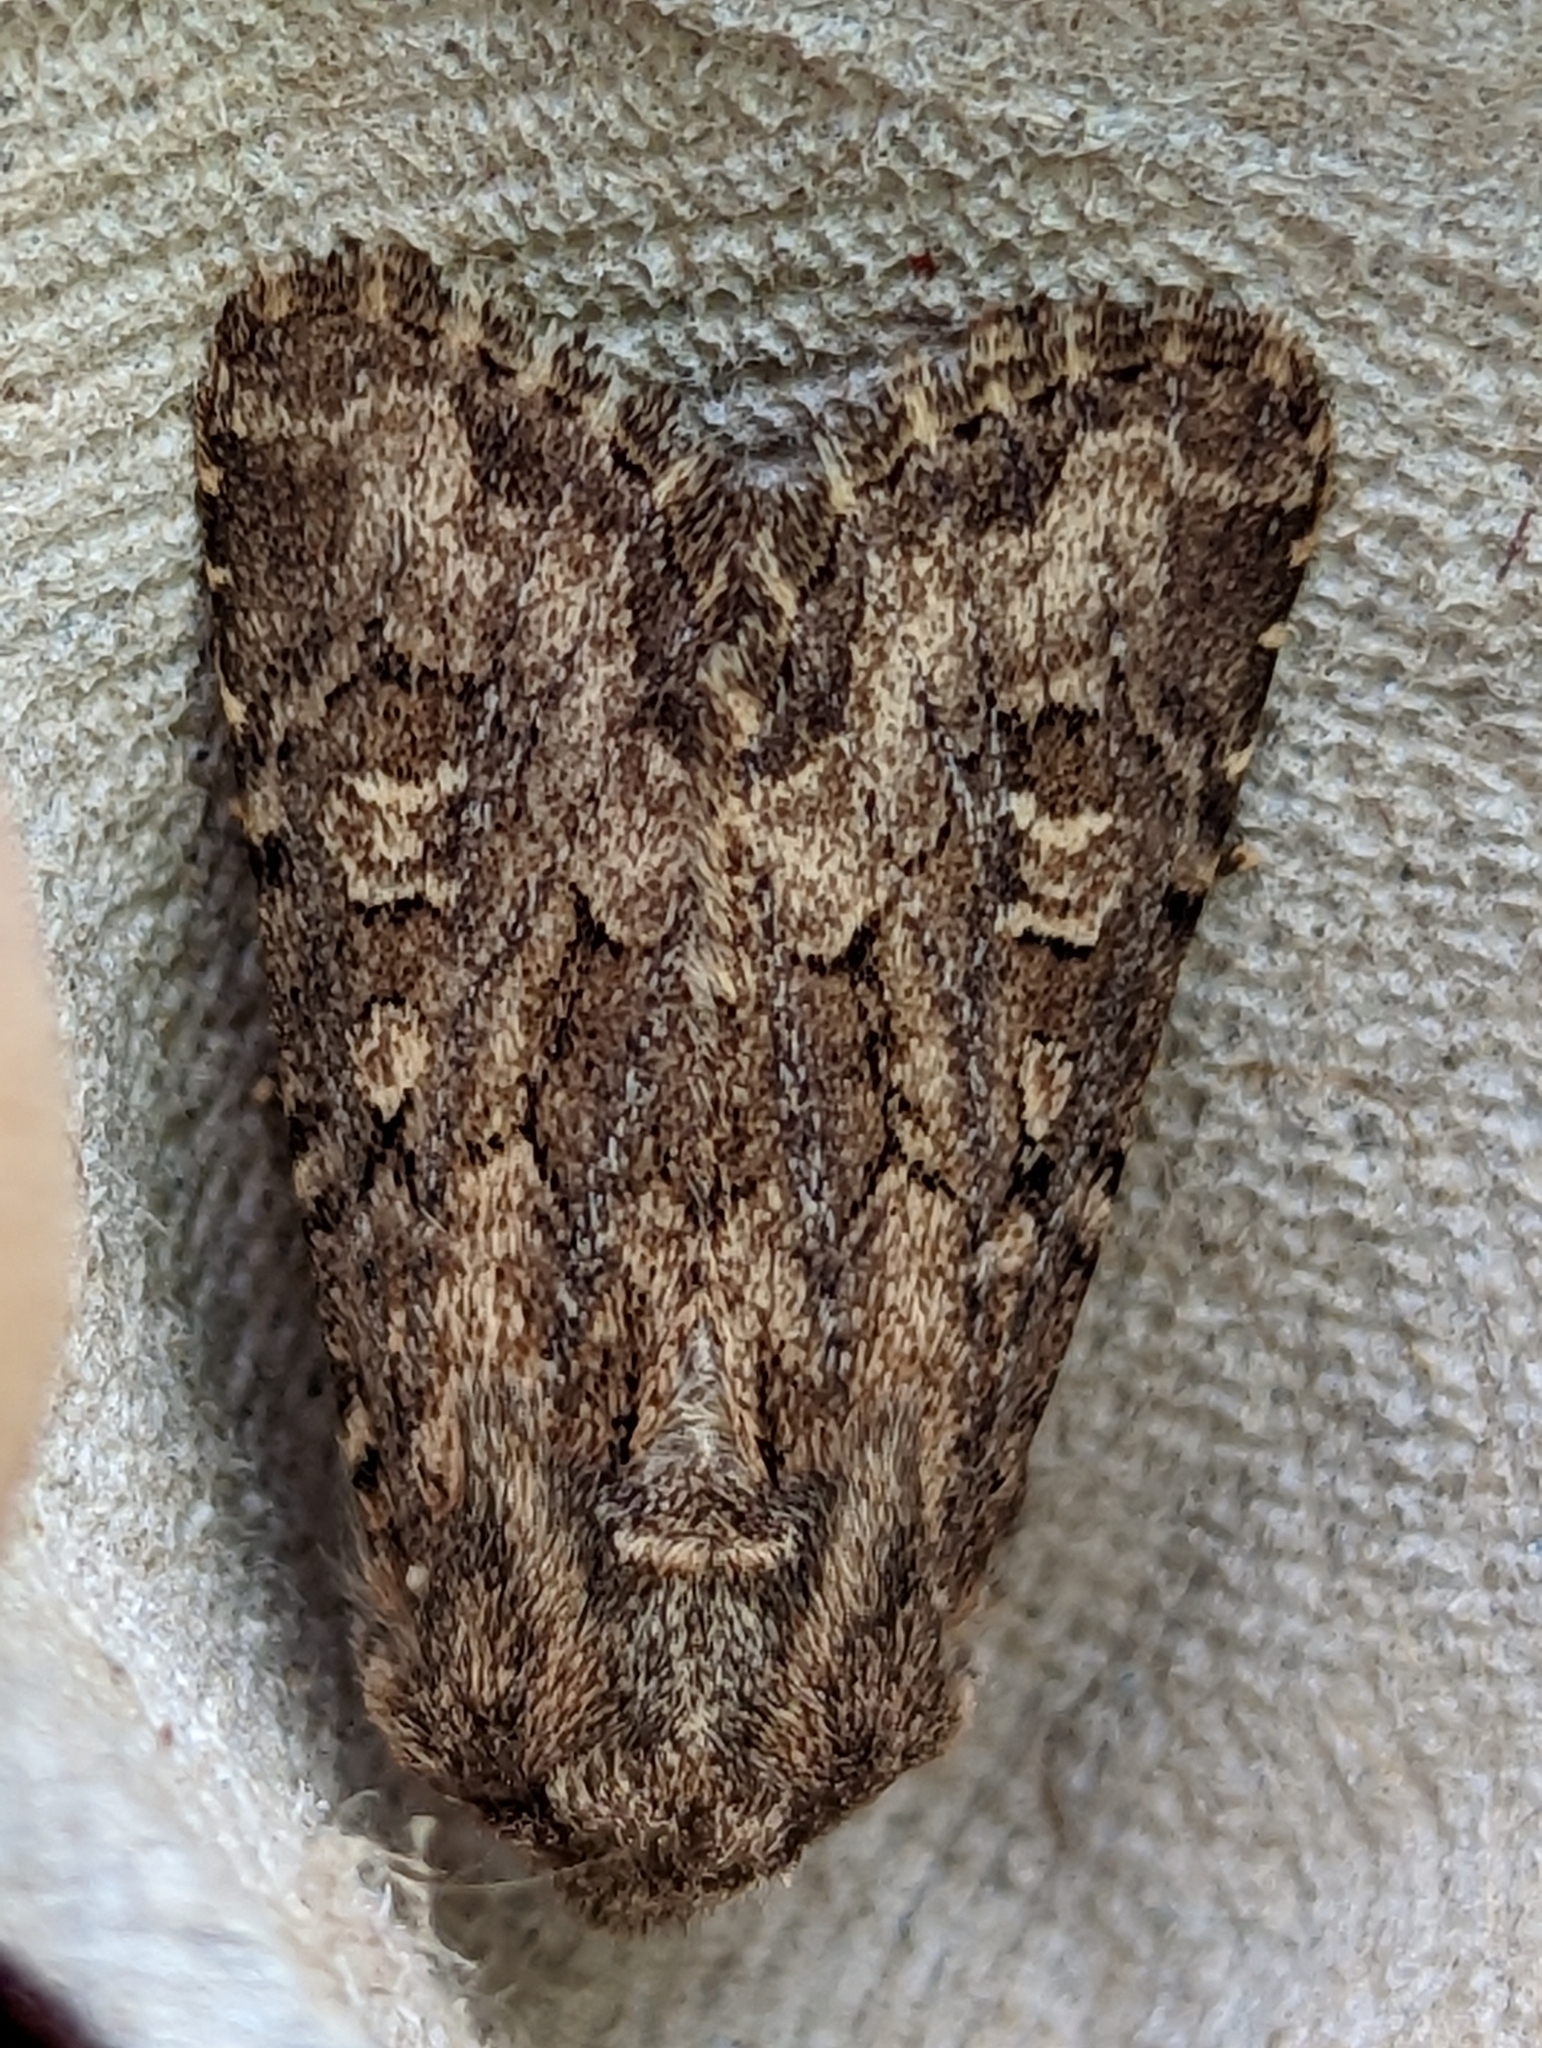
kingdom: Animalia
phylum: Arthropoda
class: Insecta
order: Lepidoptera
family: Noctuidae
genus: Luperina
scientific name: Luperina testacea
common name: Flounced rustic
